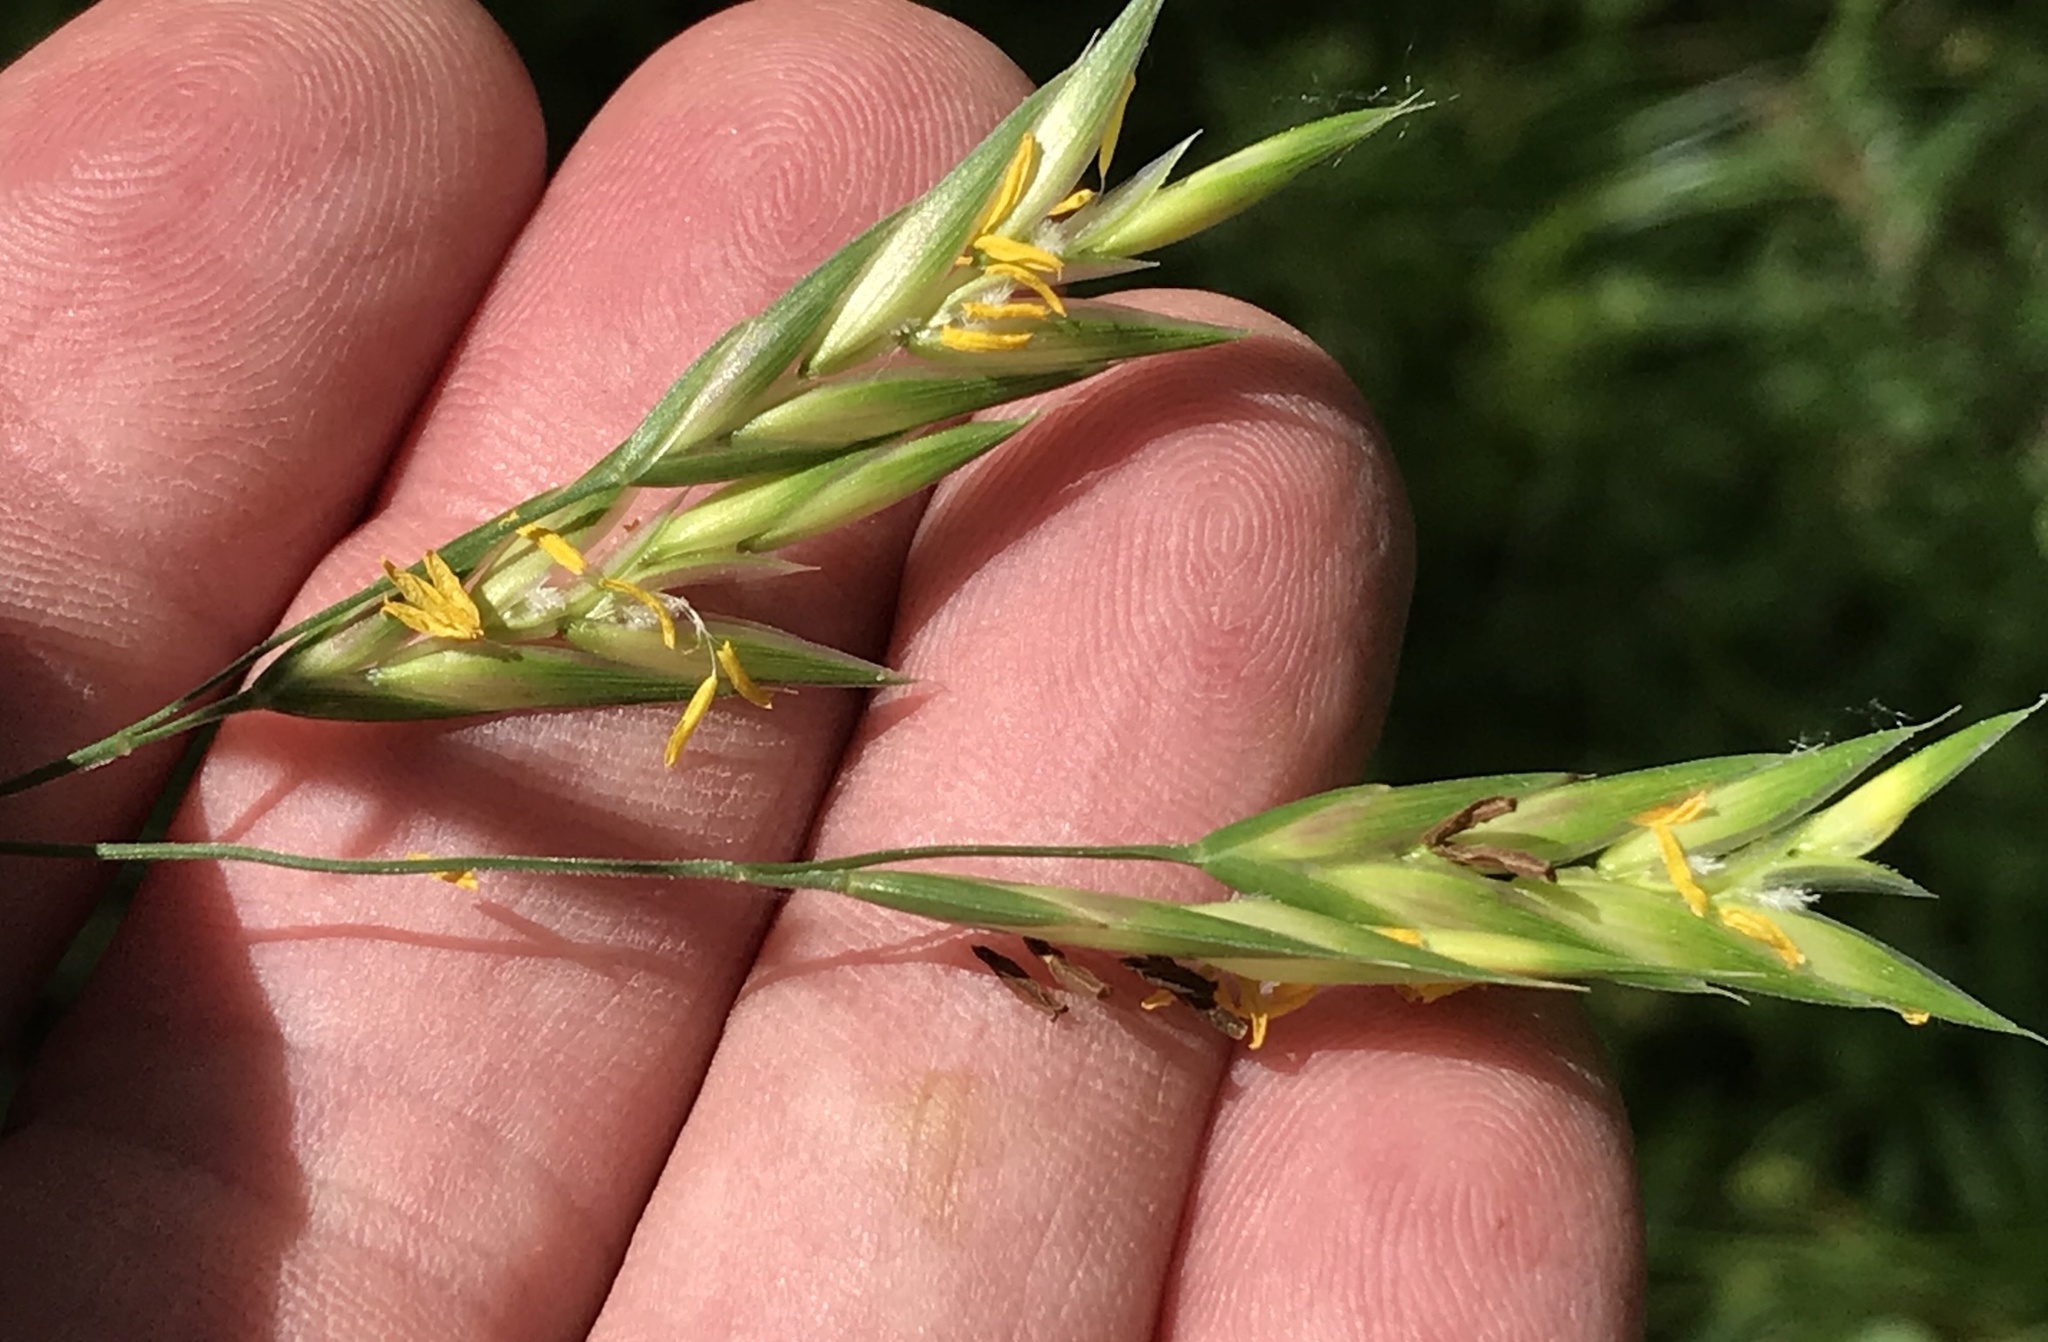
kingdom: Plantae
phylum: Tracheophyta
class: Liliopsida
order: Poales
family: Poaceae
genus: Bromus
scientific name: Bromus catharticus
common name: Rescuegrass
